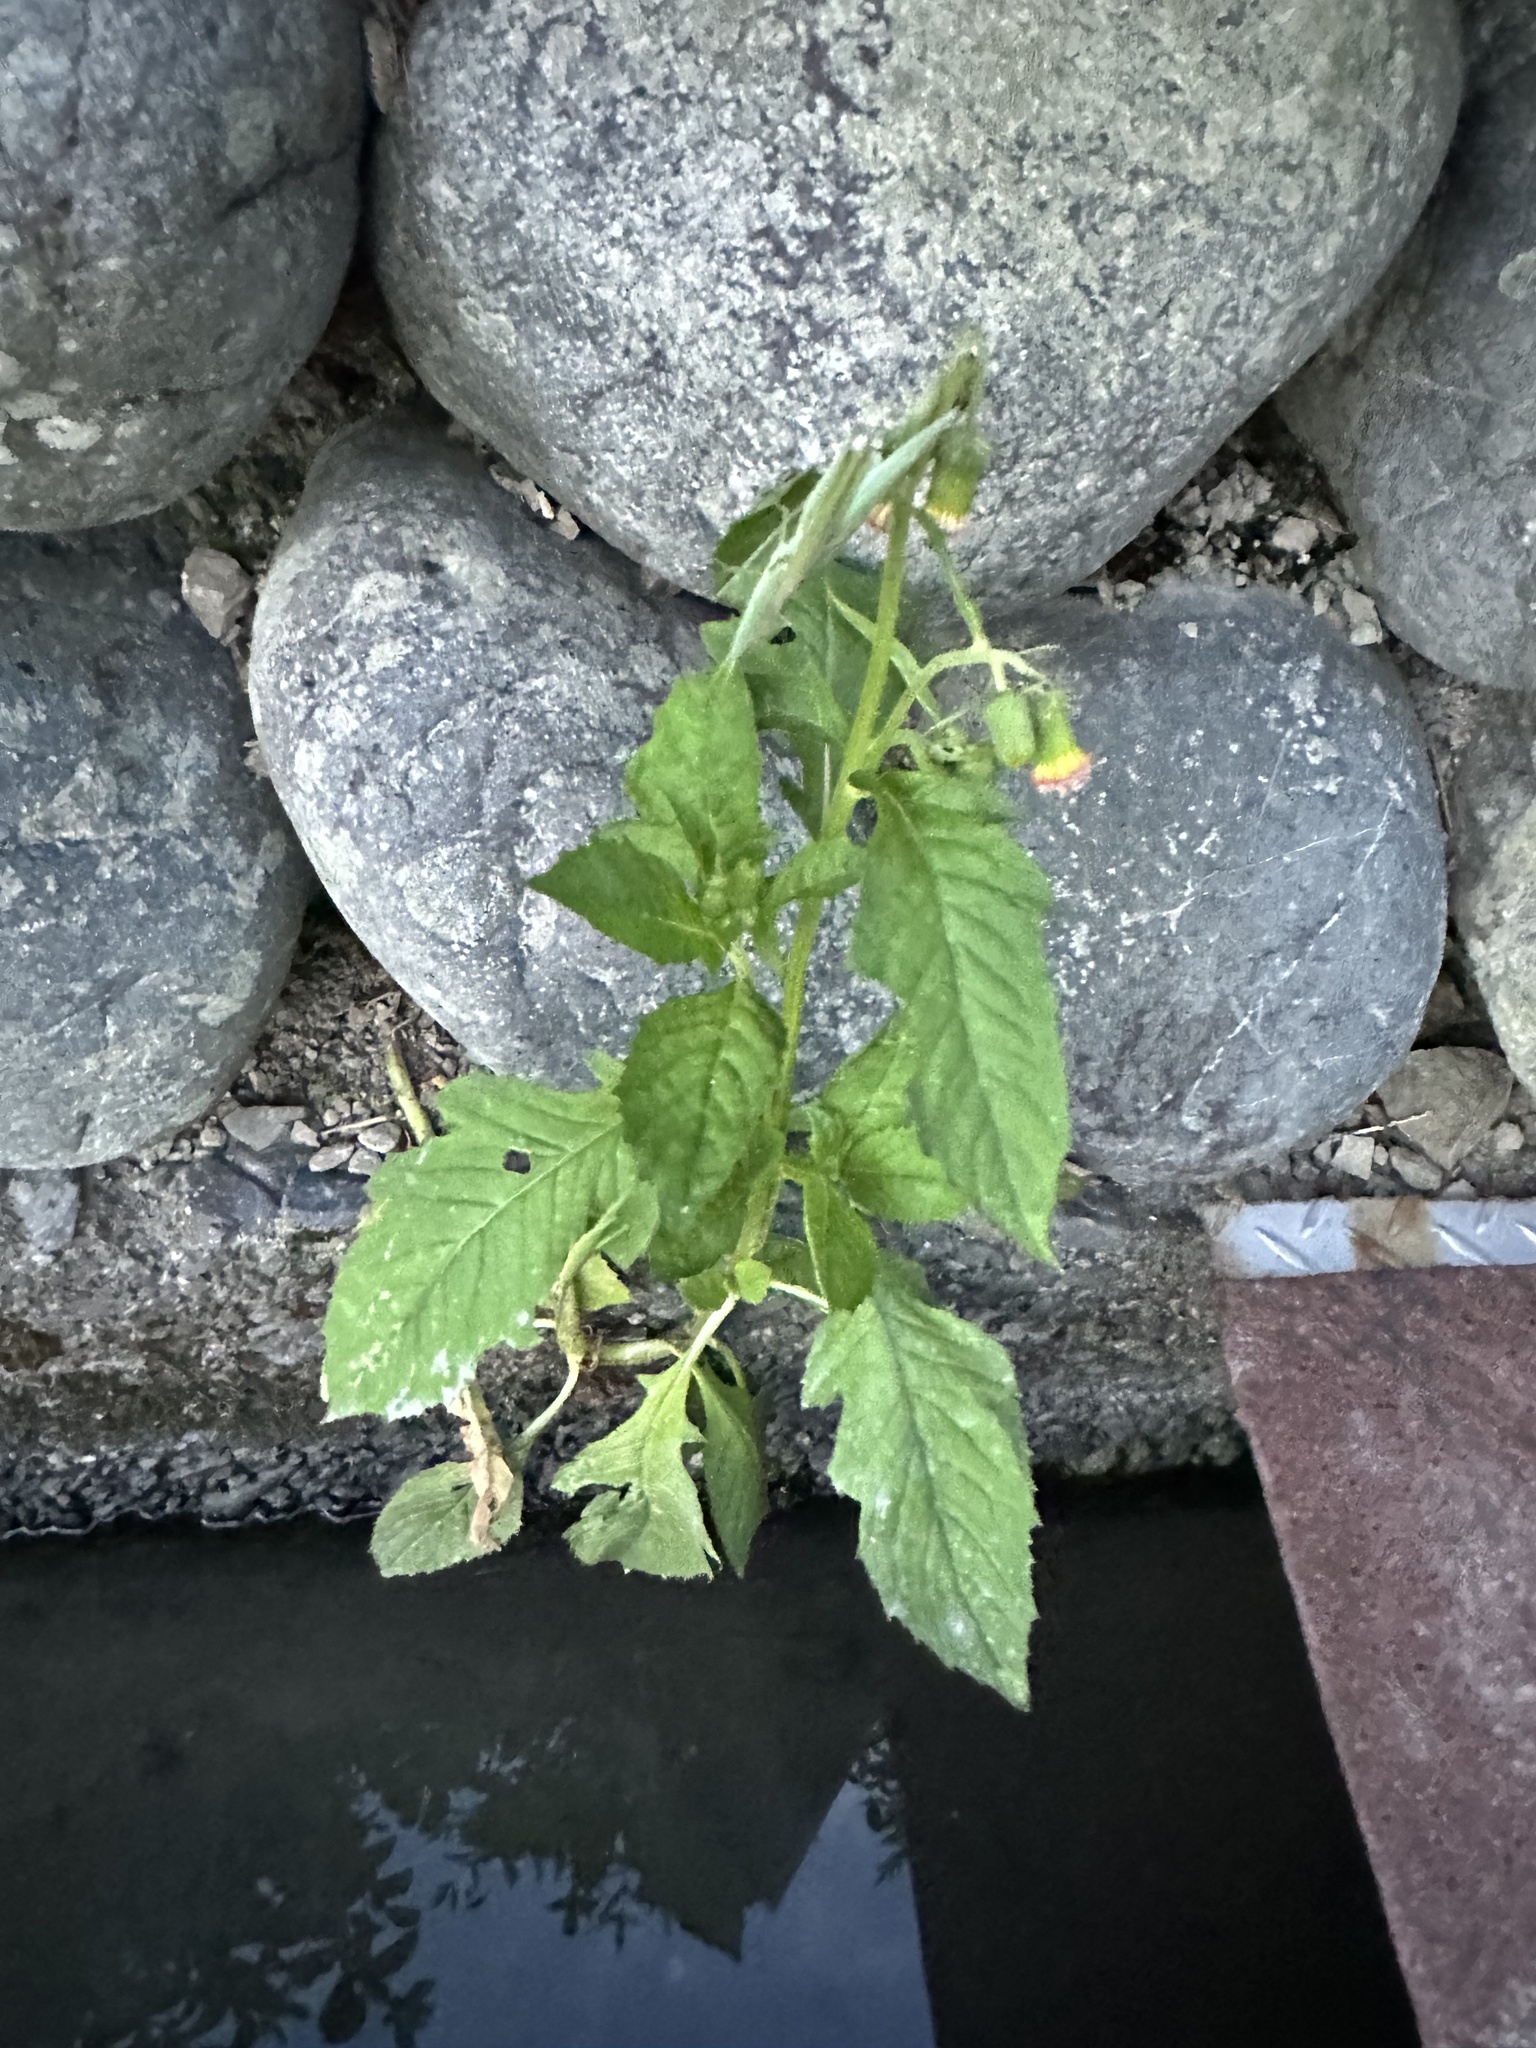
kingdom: Plantae
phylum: Tracheophyta
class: Magnoliopsida
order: Asterales
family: Asteraceae
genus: Crassocephalum
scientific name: Crassocephalum crepidioides
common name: Redflower ragleaf
